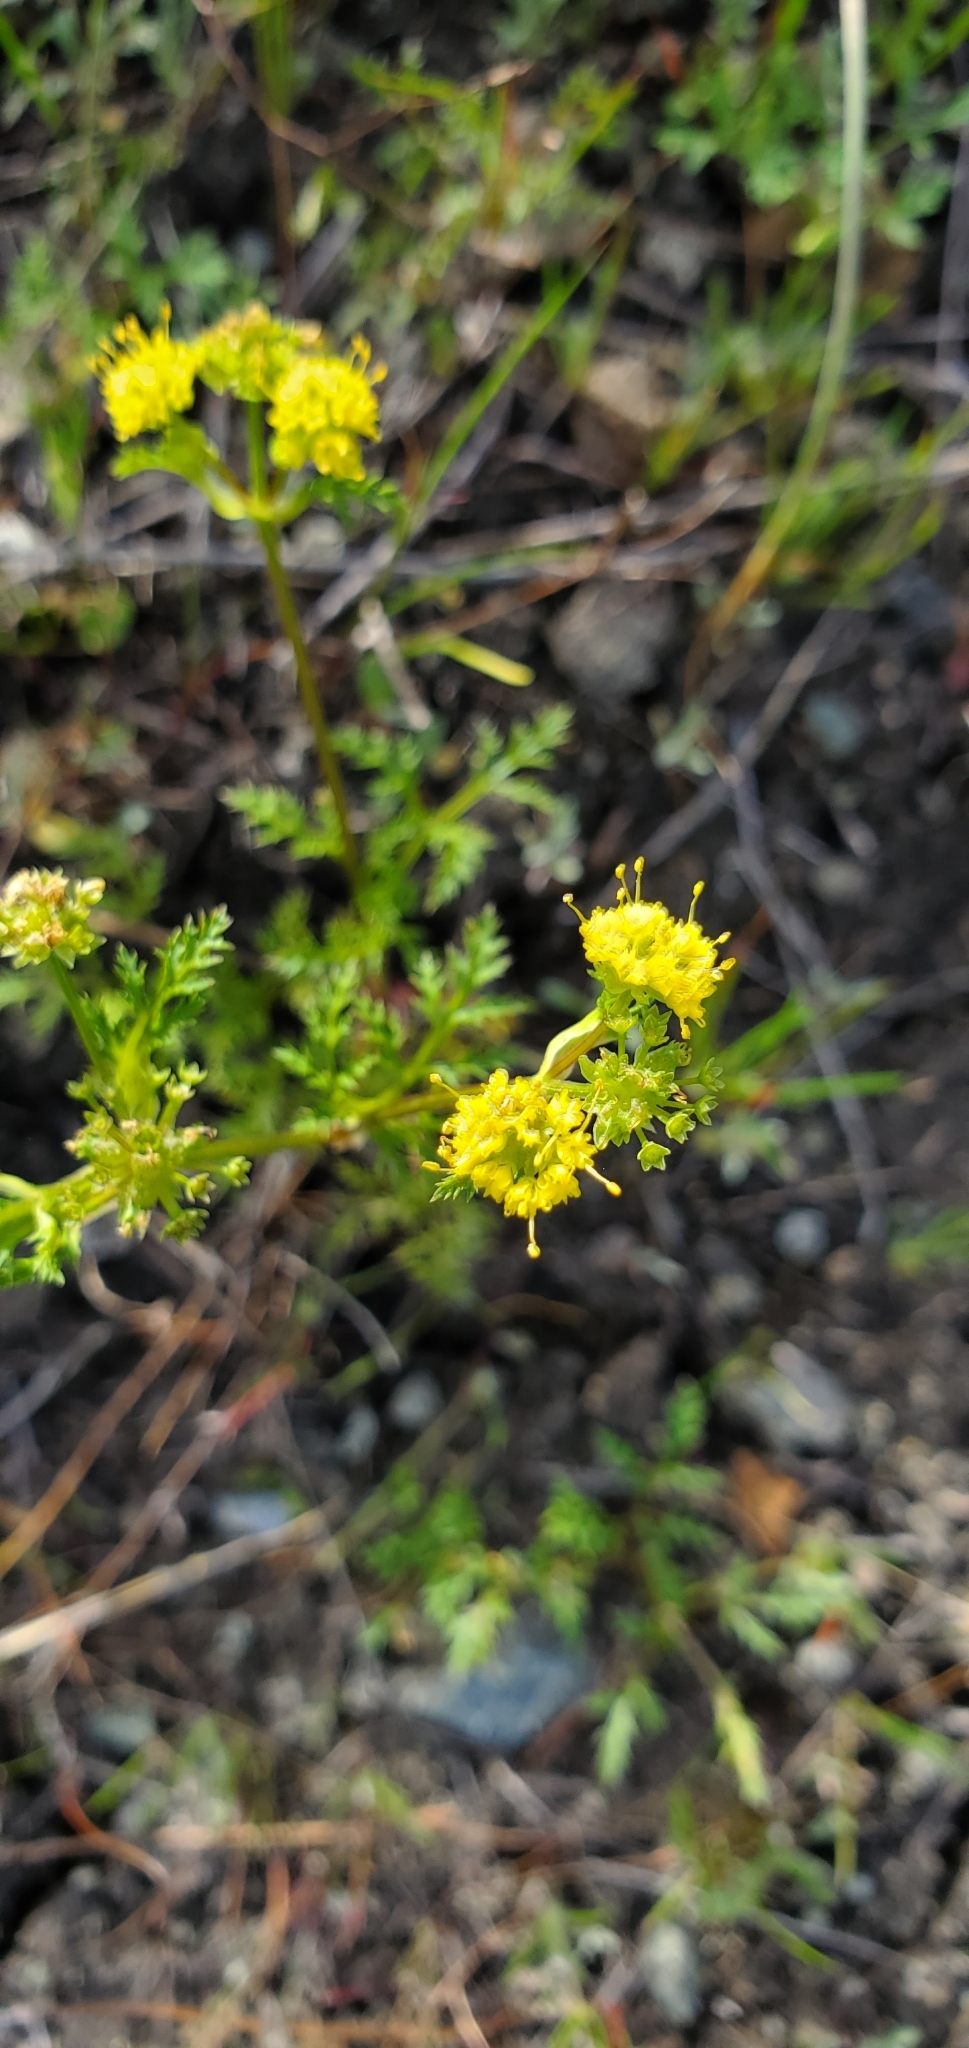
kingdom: Plantae
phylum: Tracheophyta
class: Magnoliopsida
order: Apiales
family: Apiaceae
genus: Sanicula
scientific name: Sanicula tuberosa
